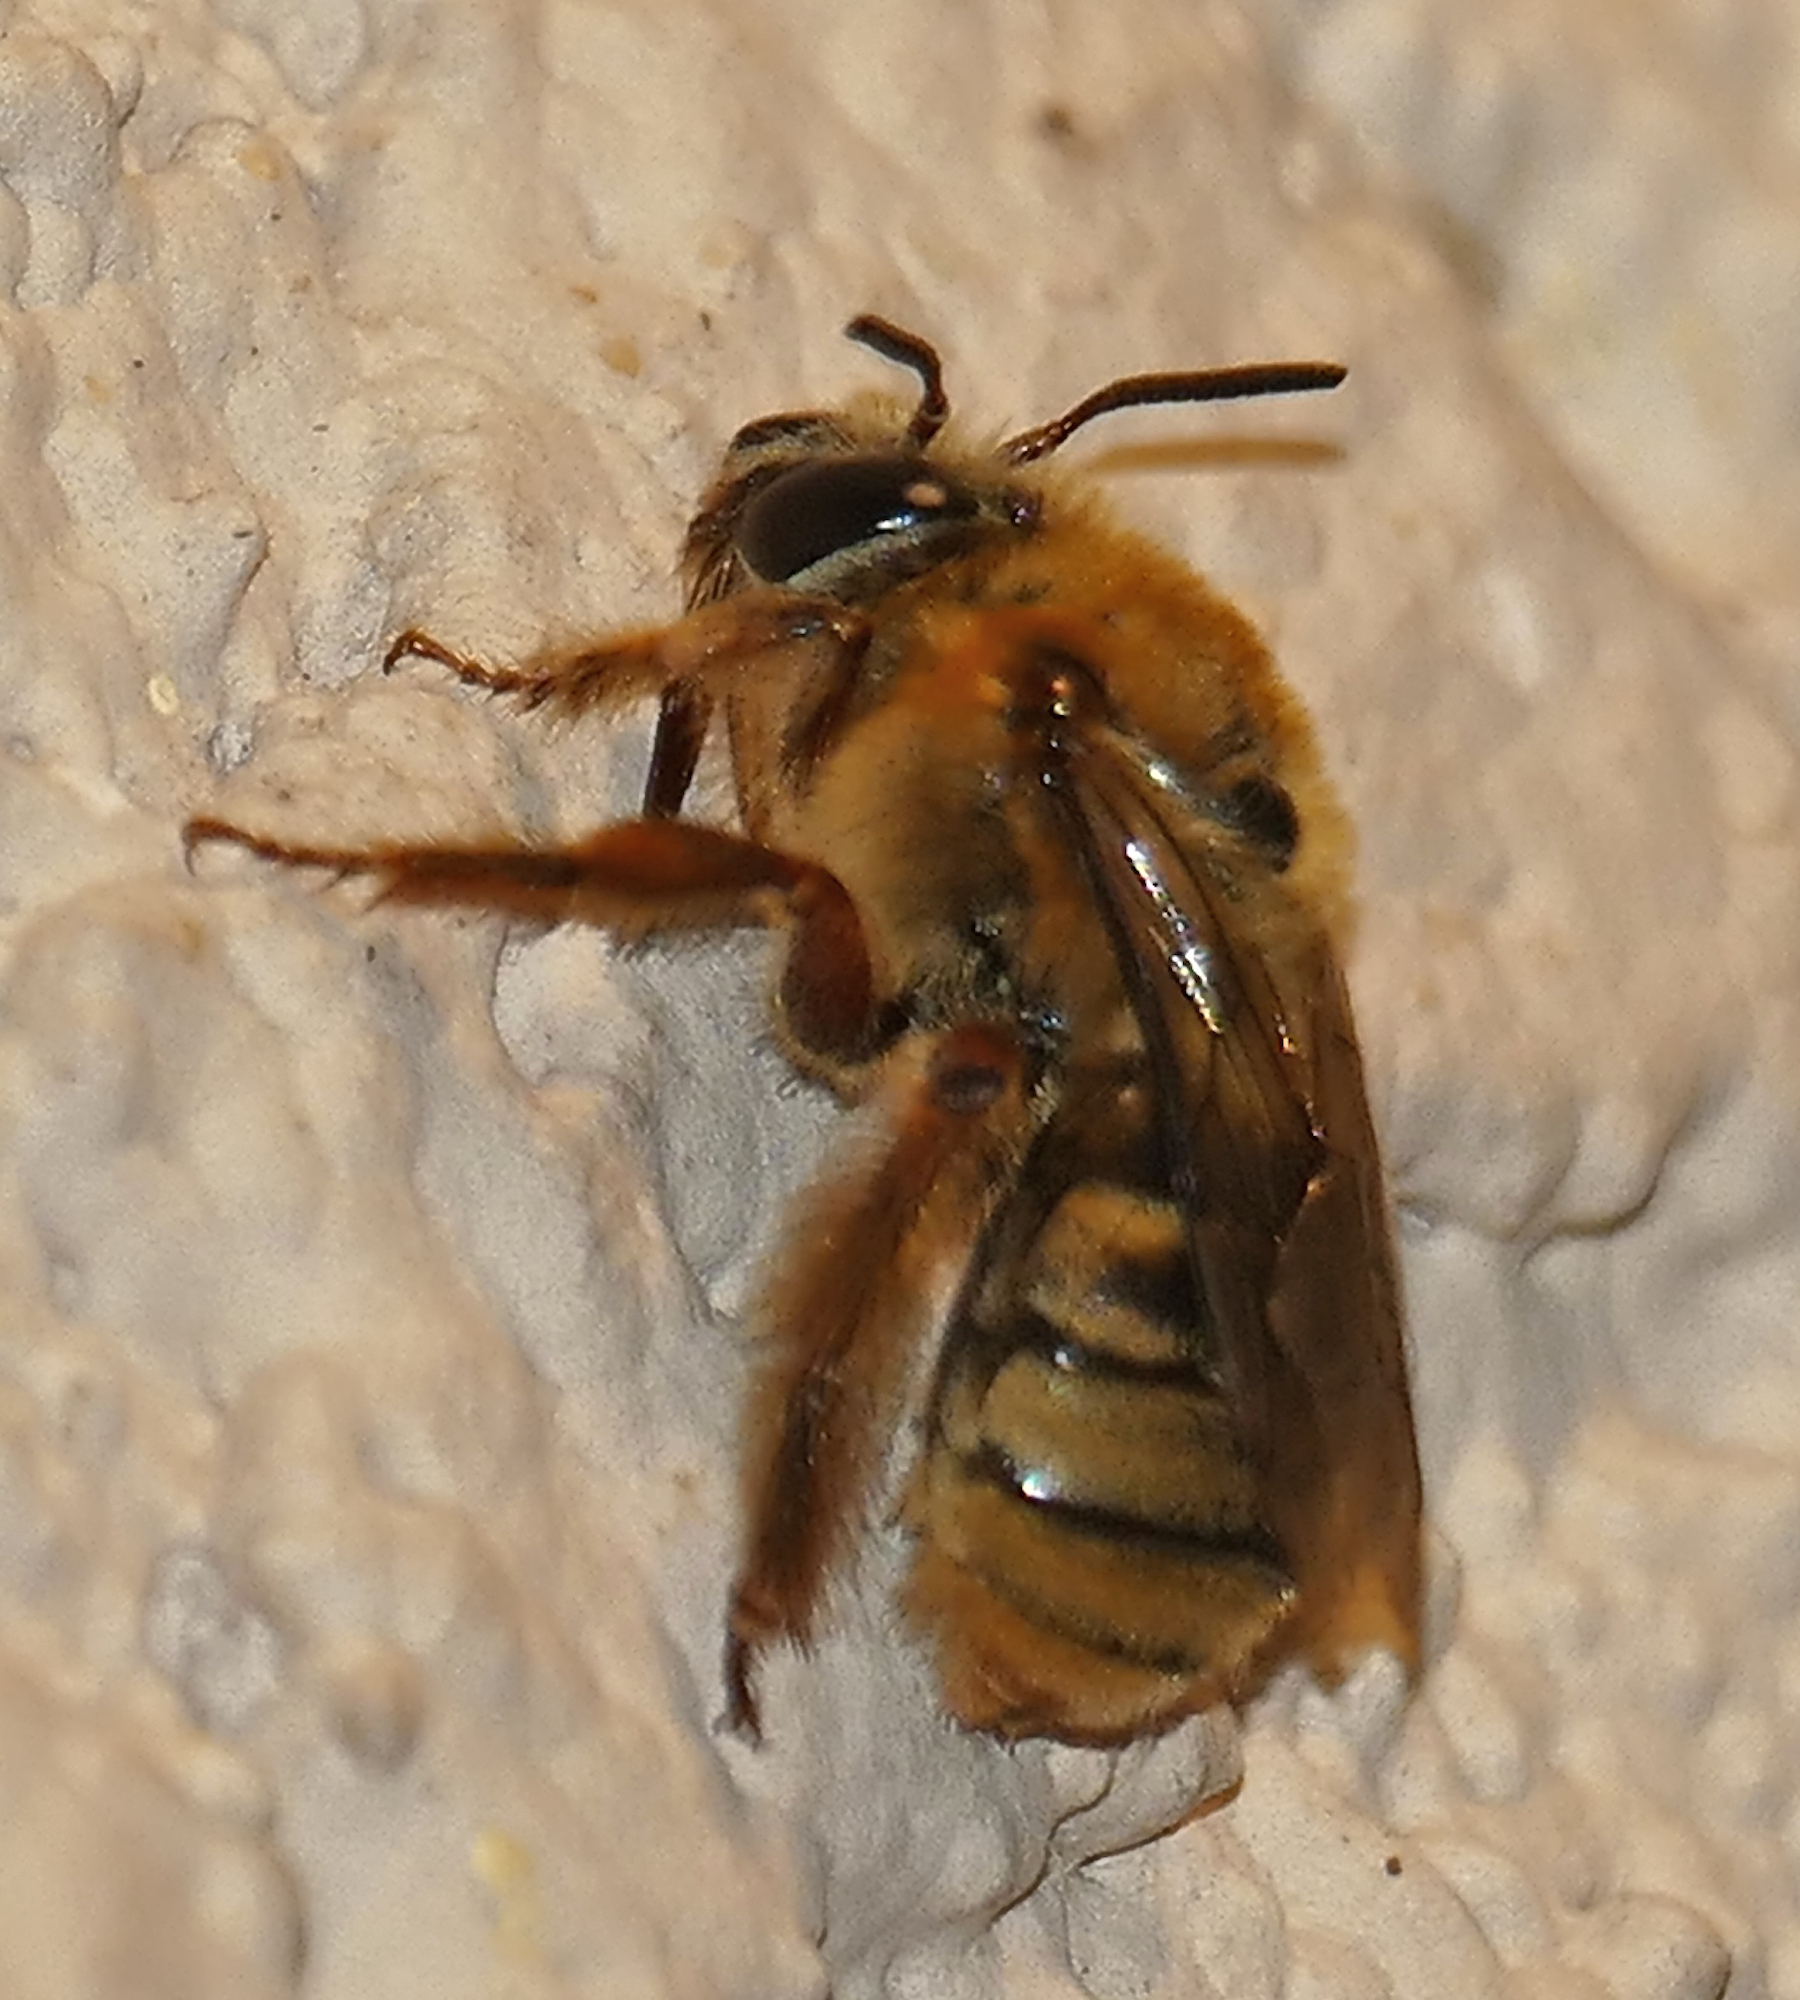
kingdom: Animalia
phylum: Arthropoda
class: Insecta
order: Hymenoptera
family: Apidae
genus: Xenoglossa
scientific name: Xenoglossa strenua
